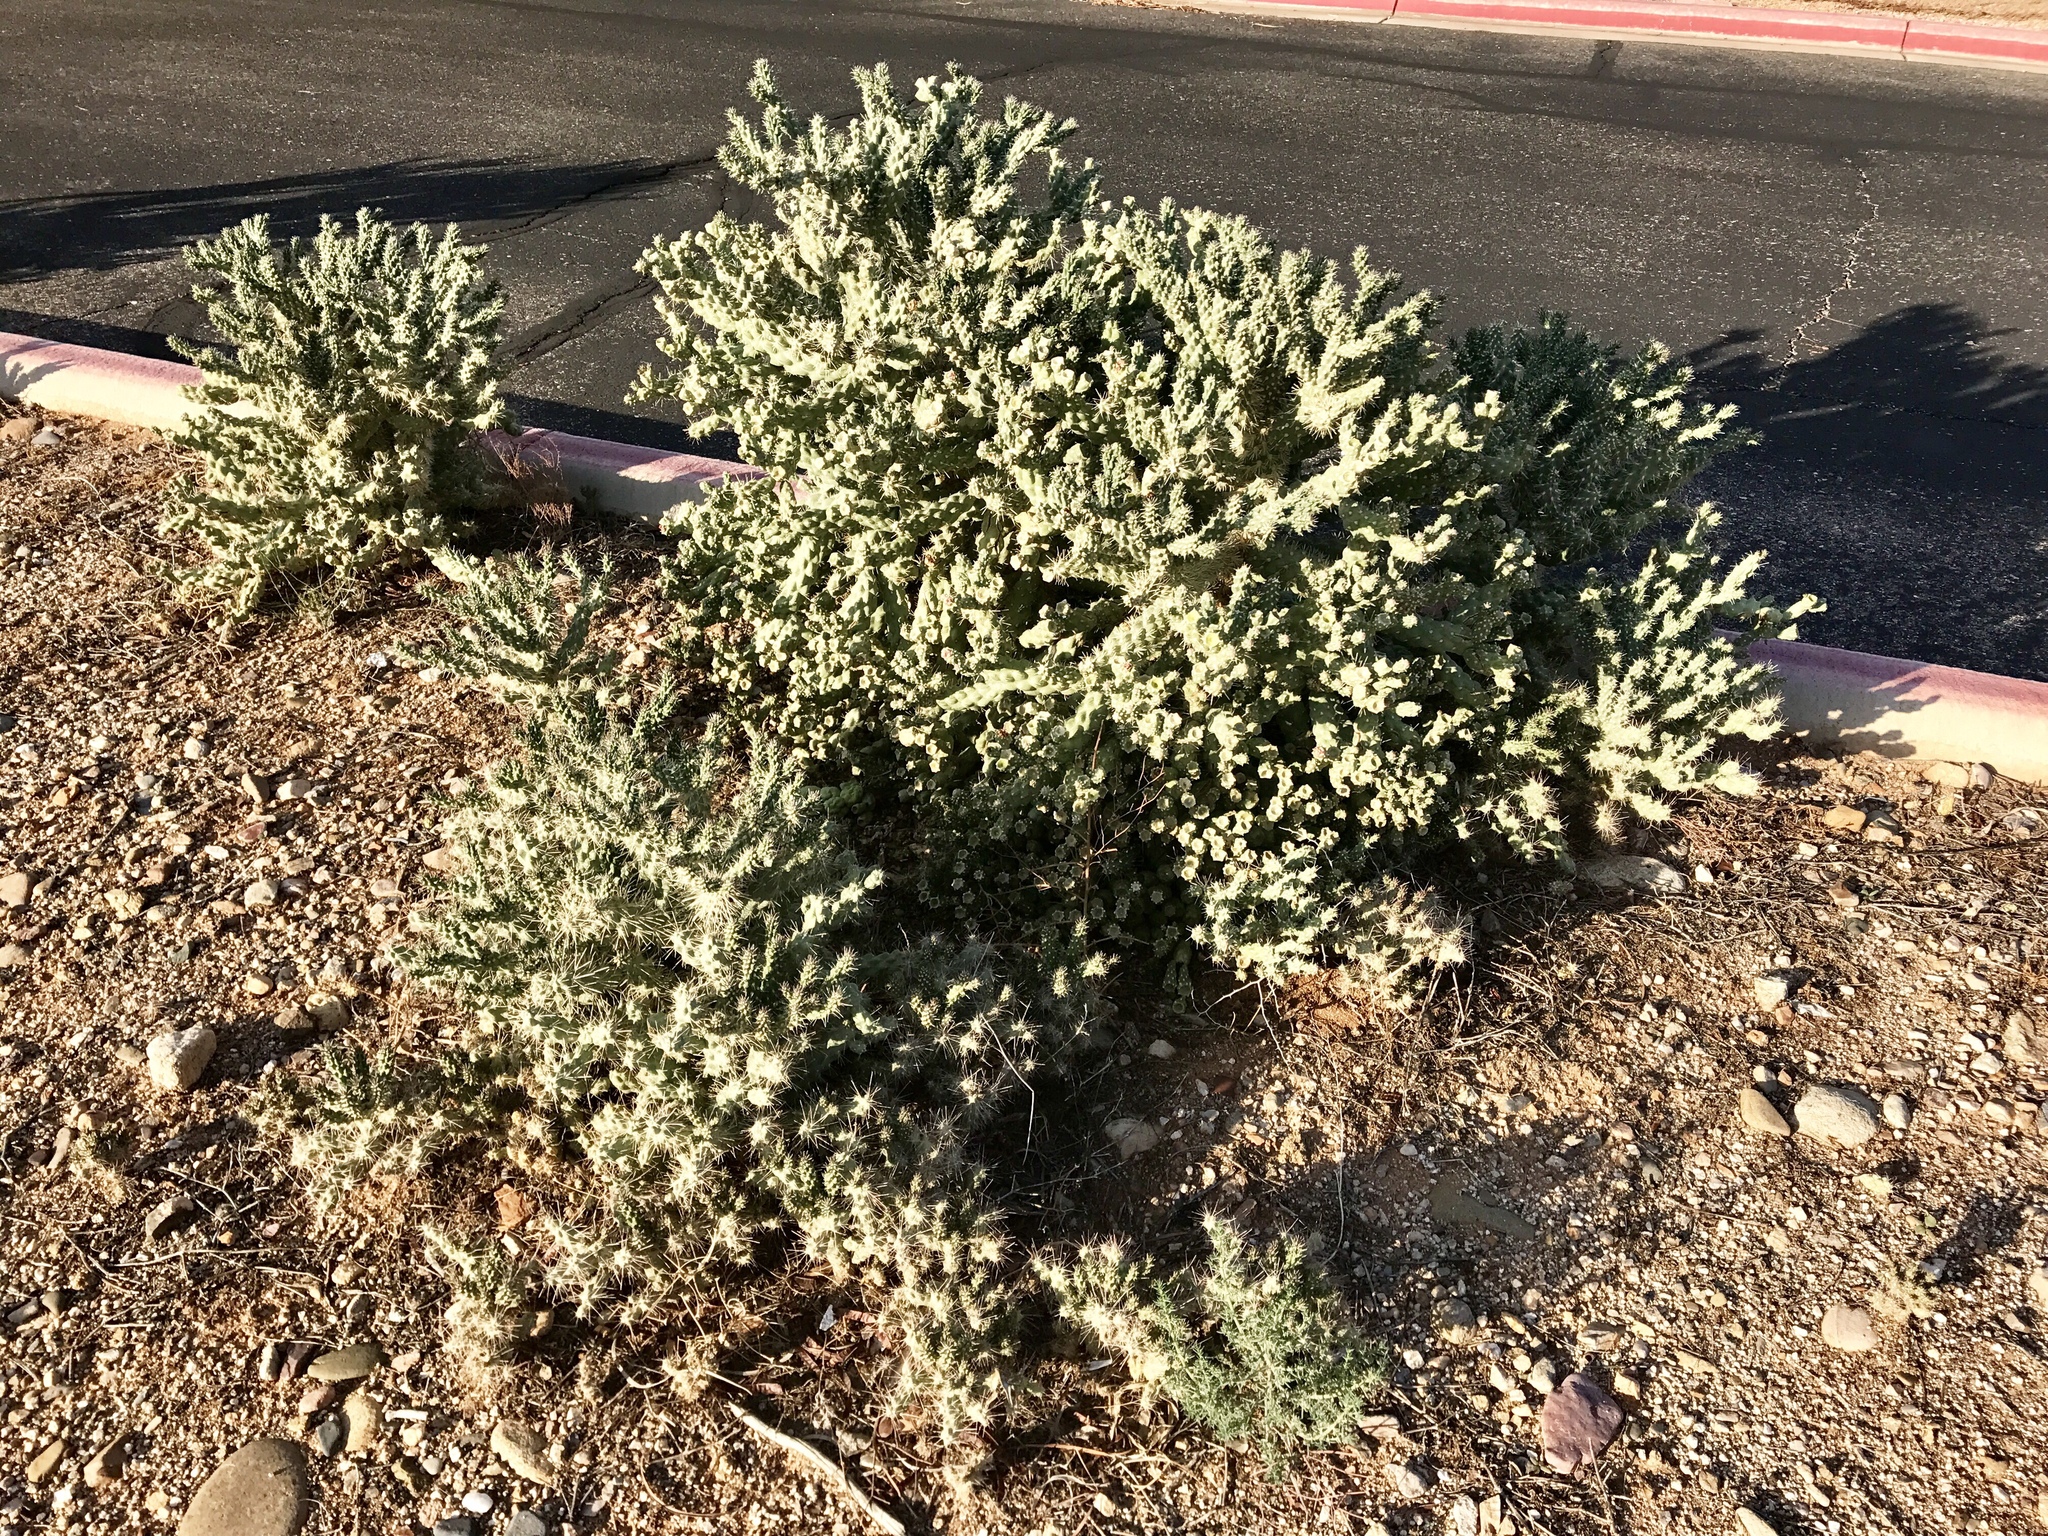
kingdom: Plantae
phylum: Tracheophyta
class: Magnoliopsida
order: Caryophyllales
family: Cactaceae
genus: Cylindropuntia
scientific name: Cylindropuntia fulgida
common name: Jumping cholla
